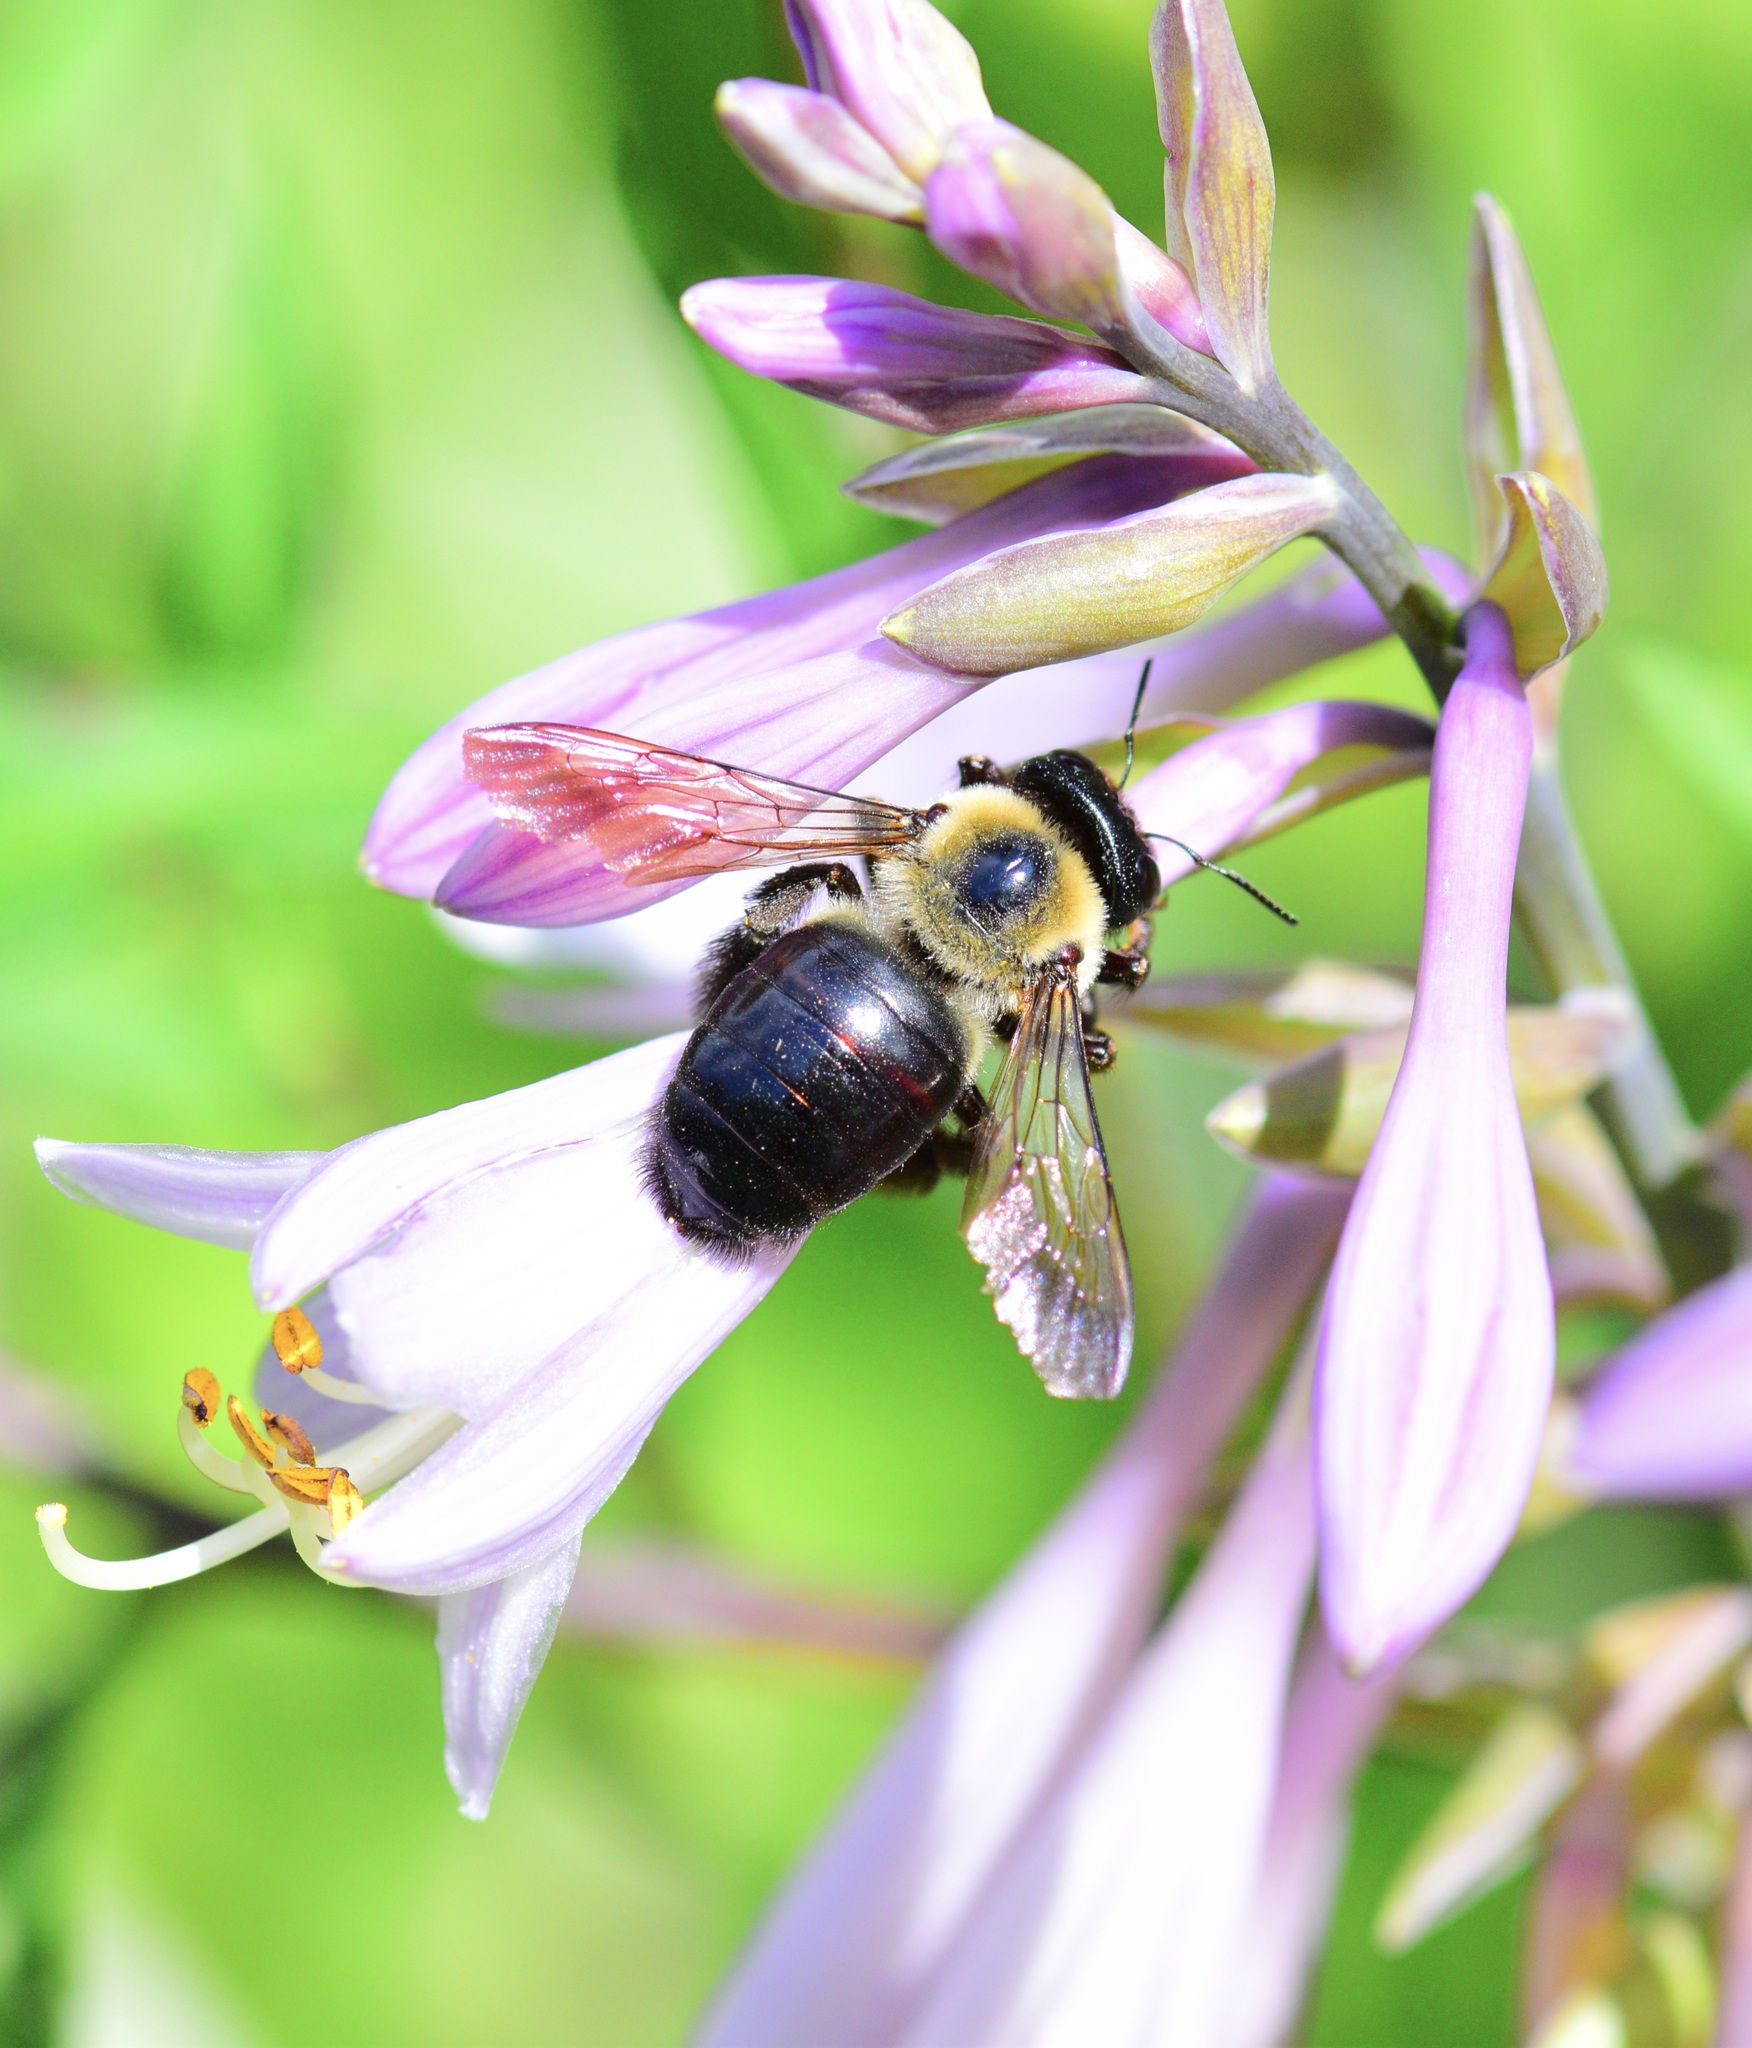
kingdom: Animalia
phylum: Arthropoda
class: Insecta
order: Hymenoptera
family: Apidae
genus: Xylocopa
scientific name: Xylocopa virginica
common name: Carpenter bee
